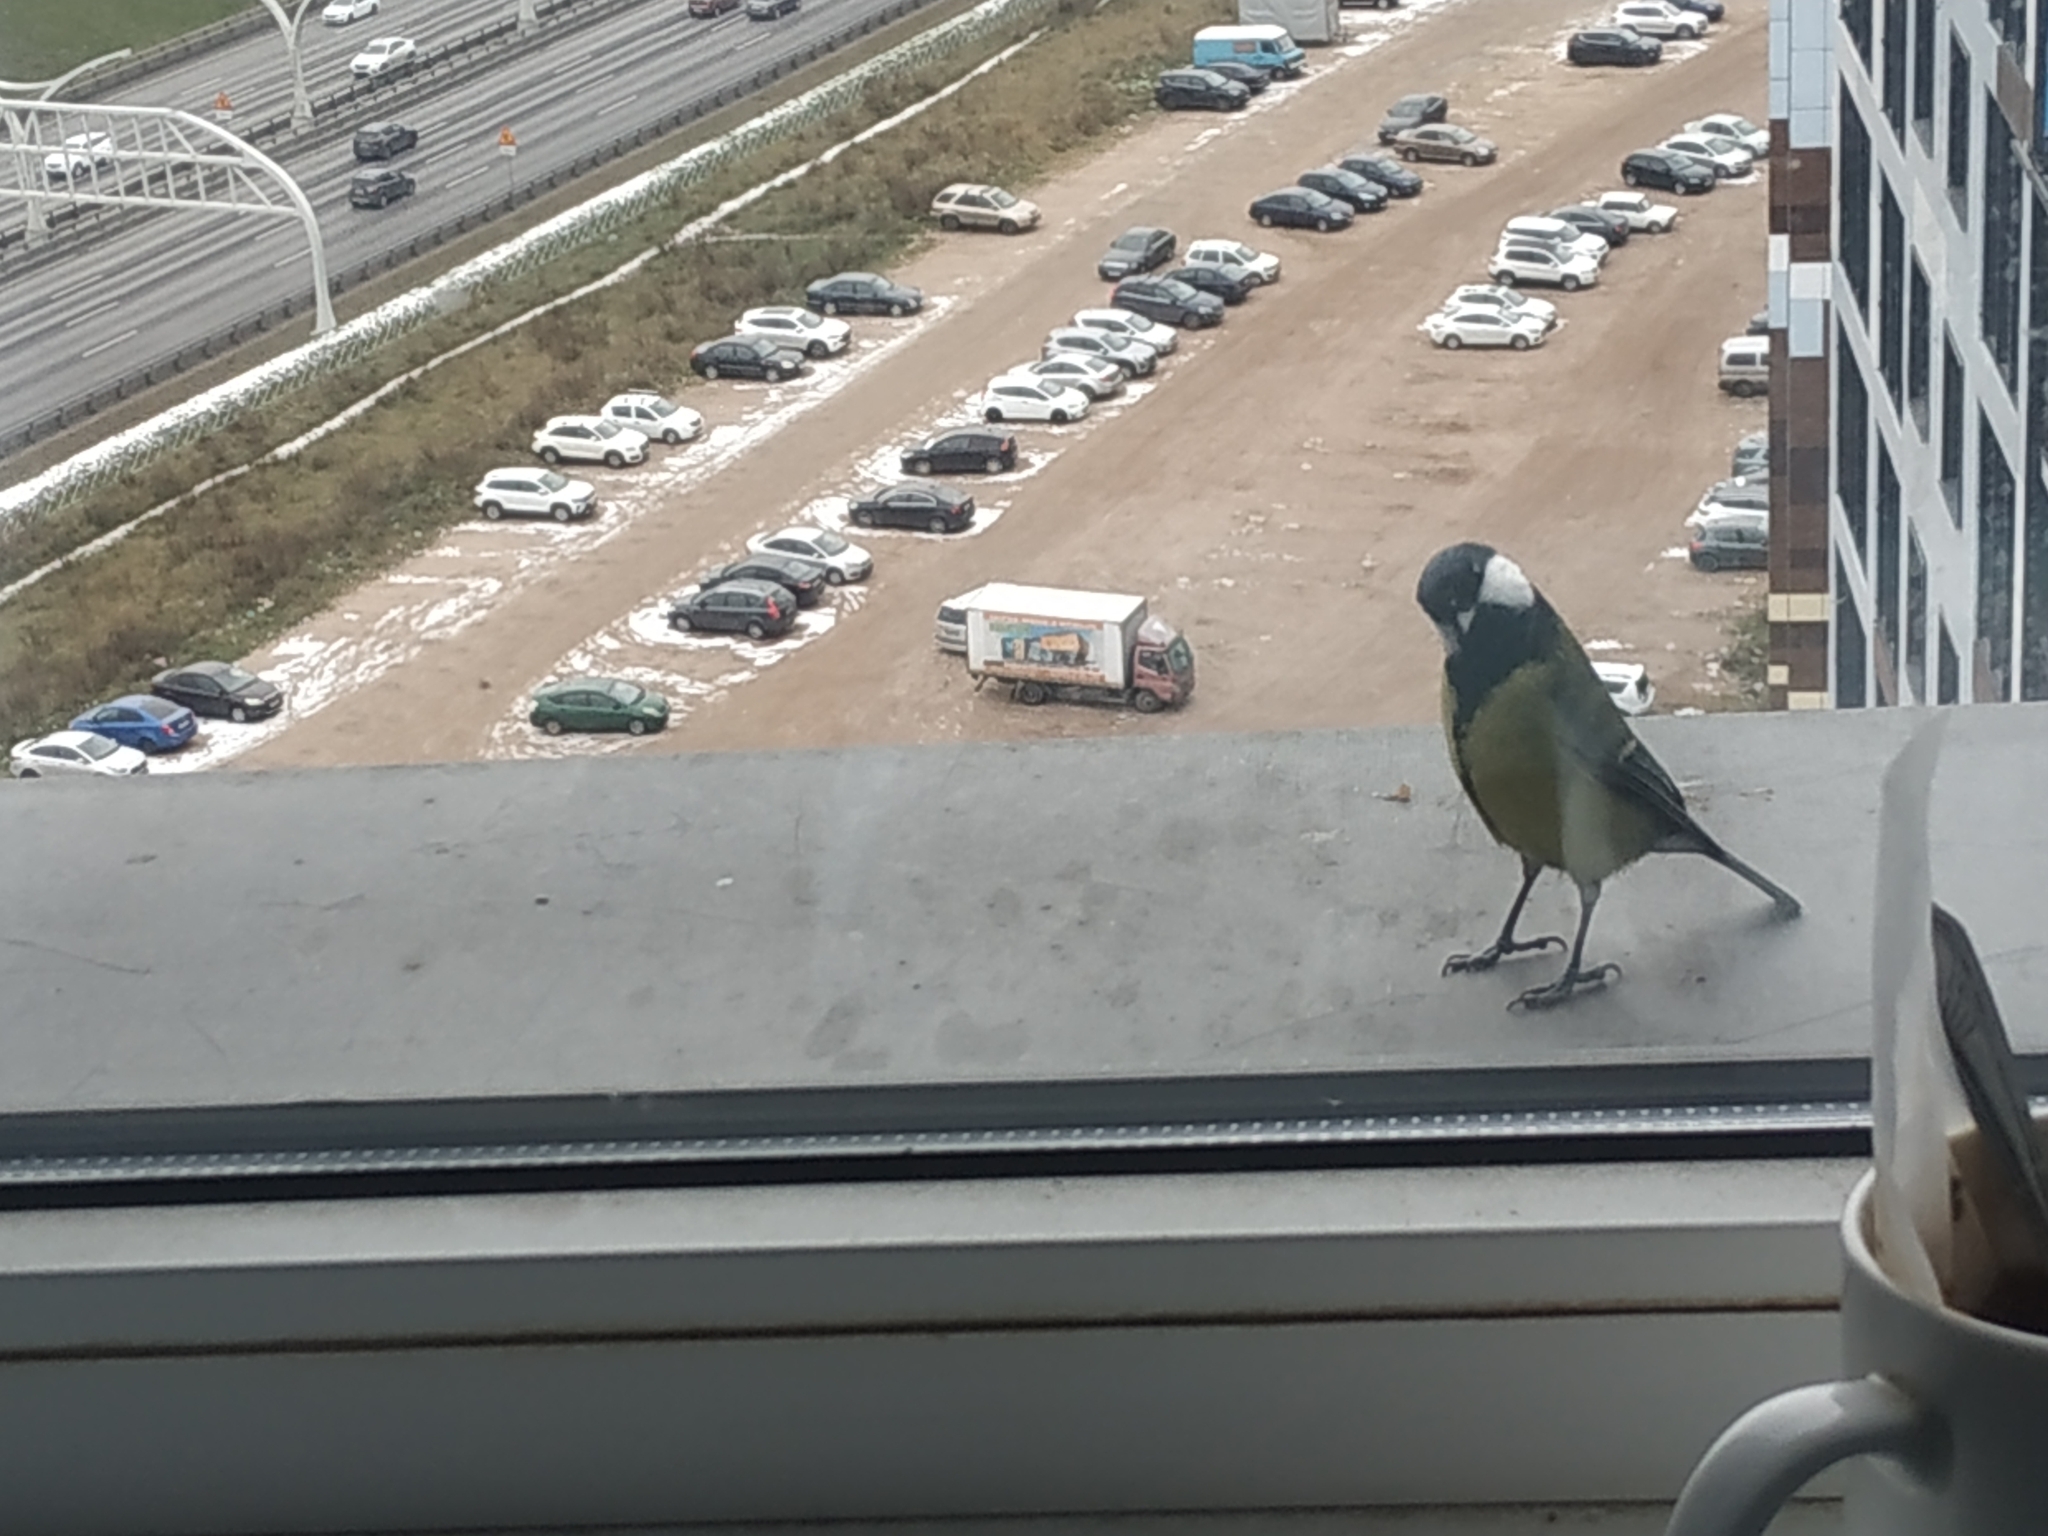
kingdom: Animalia
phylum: Chordata
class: Aves
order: Passeriformes
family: Paridae
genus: Parus
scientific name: Parus major
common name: Great tit
